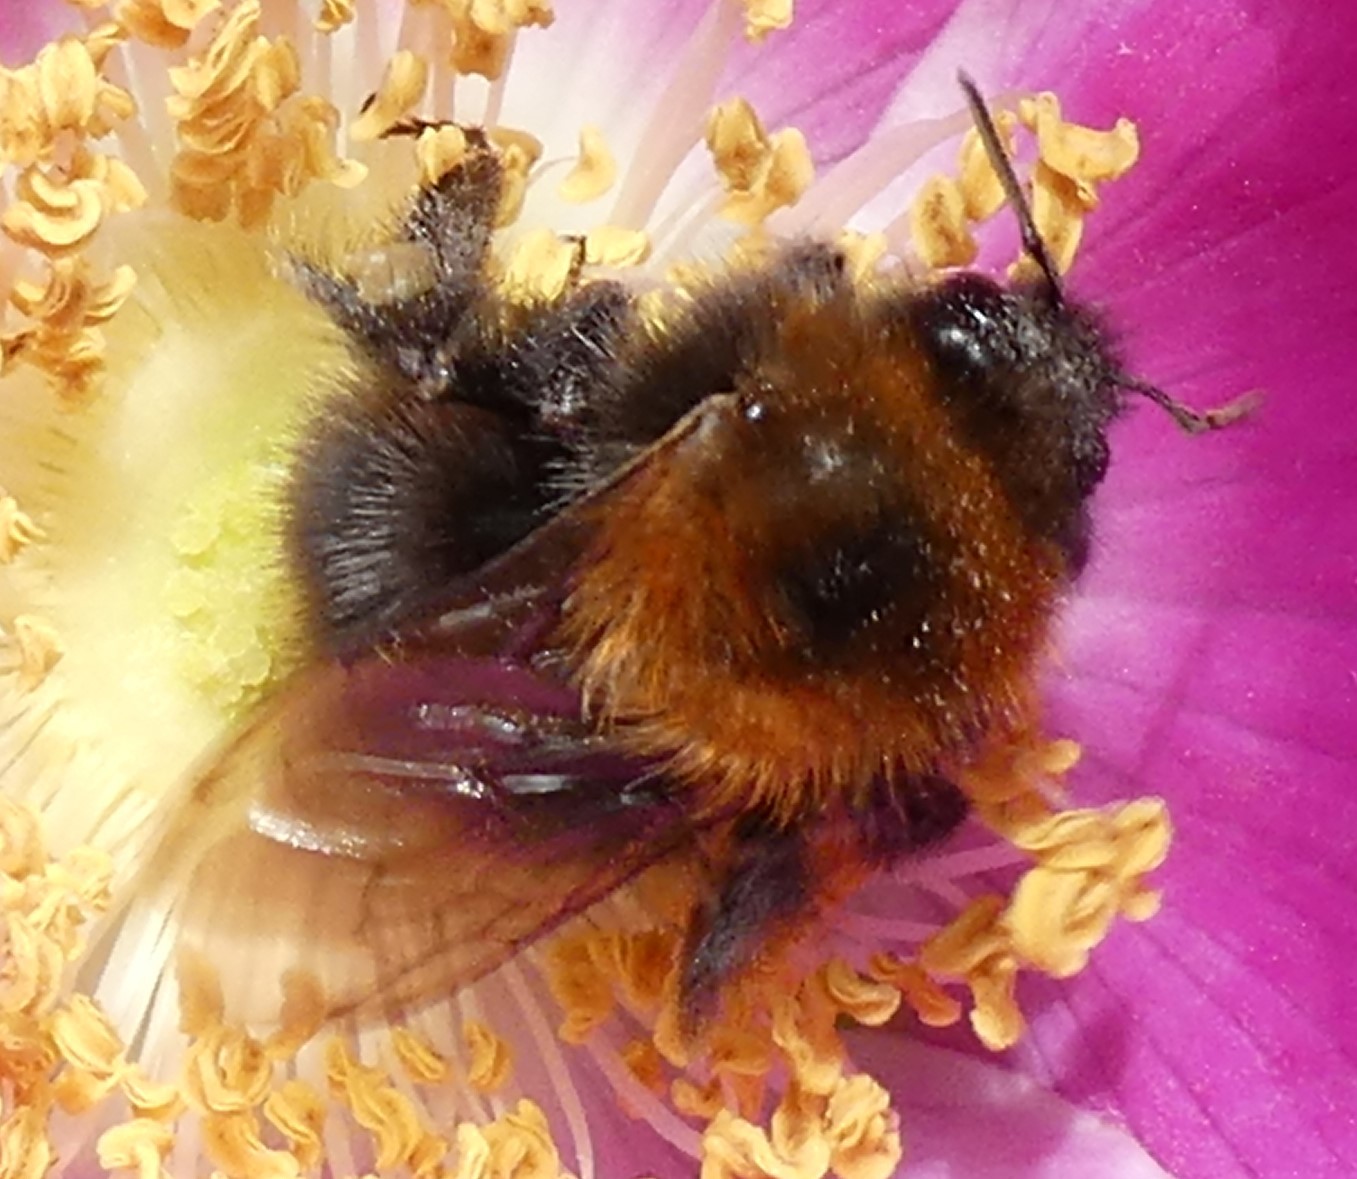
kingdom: Animalia
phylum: Arthropoda
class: Insecta
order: Hymenoptera
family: Apidae
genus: Bombus
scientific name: Bombus hypnorum
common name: New garden bumblebee
